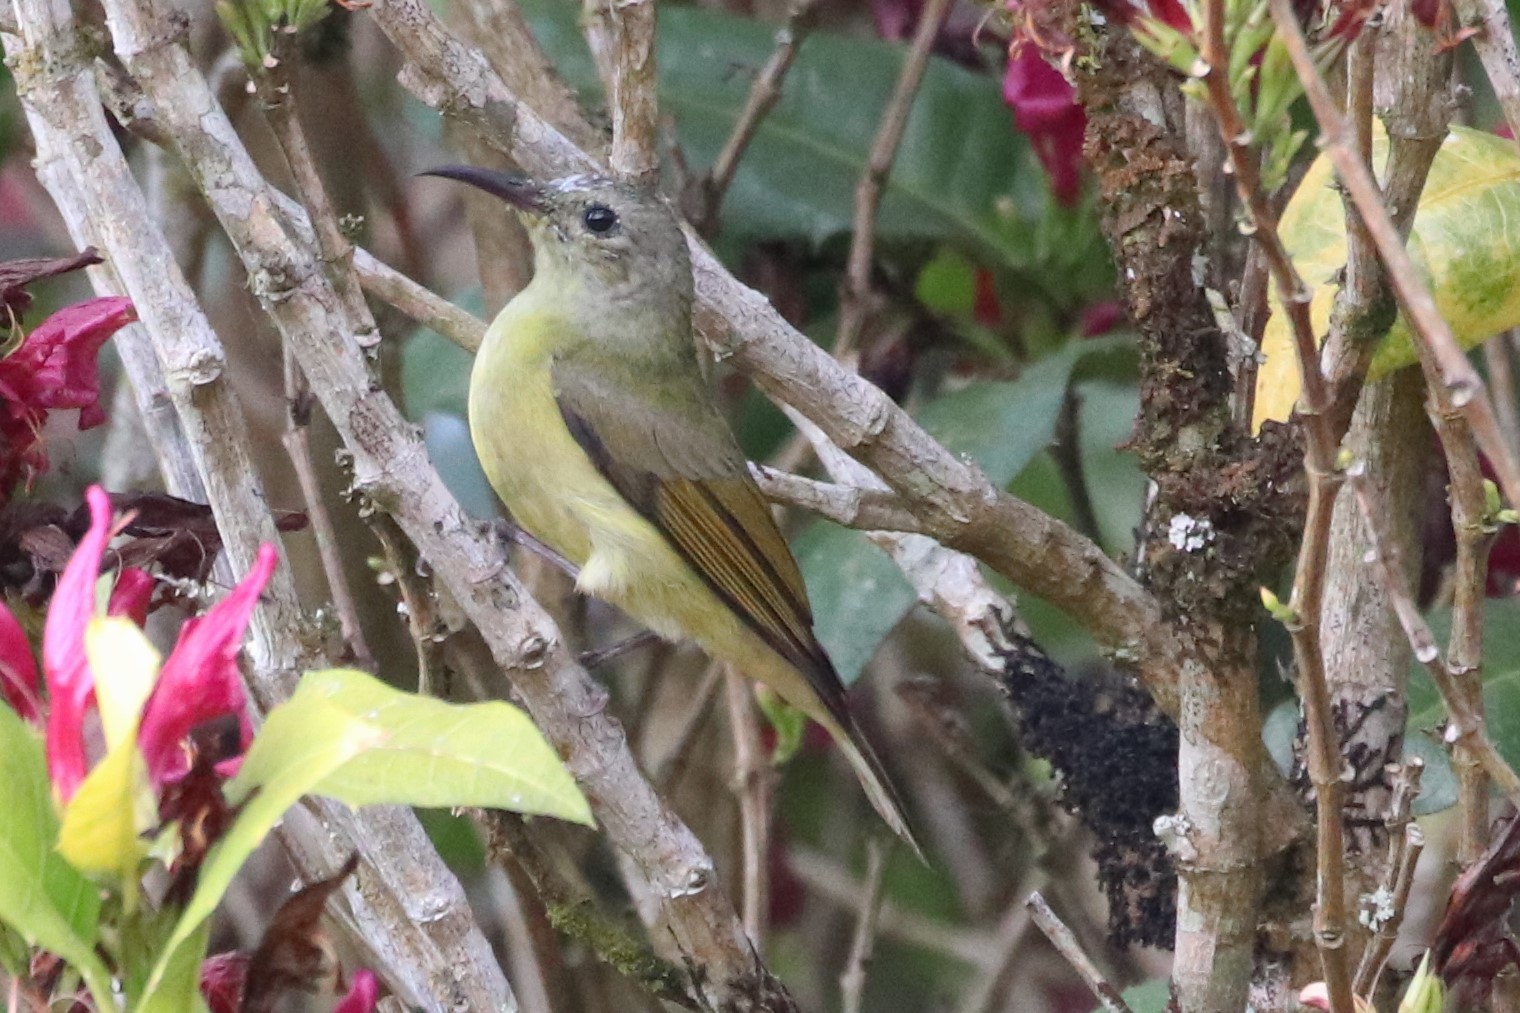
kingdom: Animalia
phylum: Chordata
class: Aves
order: Passeriformes
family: Nectariniidae
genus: Aethopyga
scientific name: Aethopyga gouldiae
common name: Mrs. gould's sunbird
